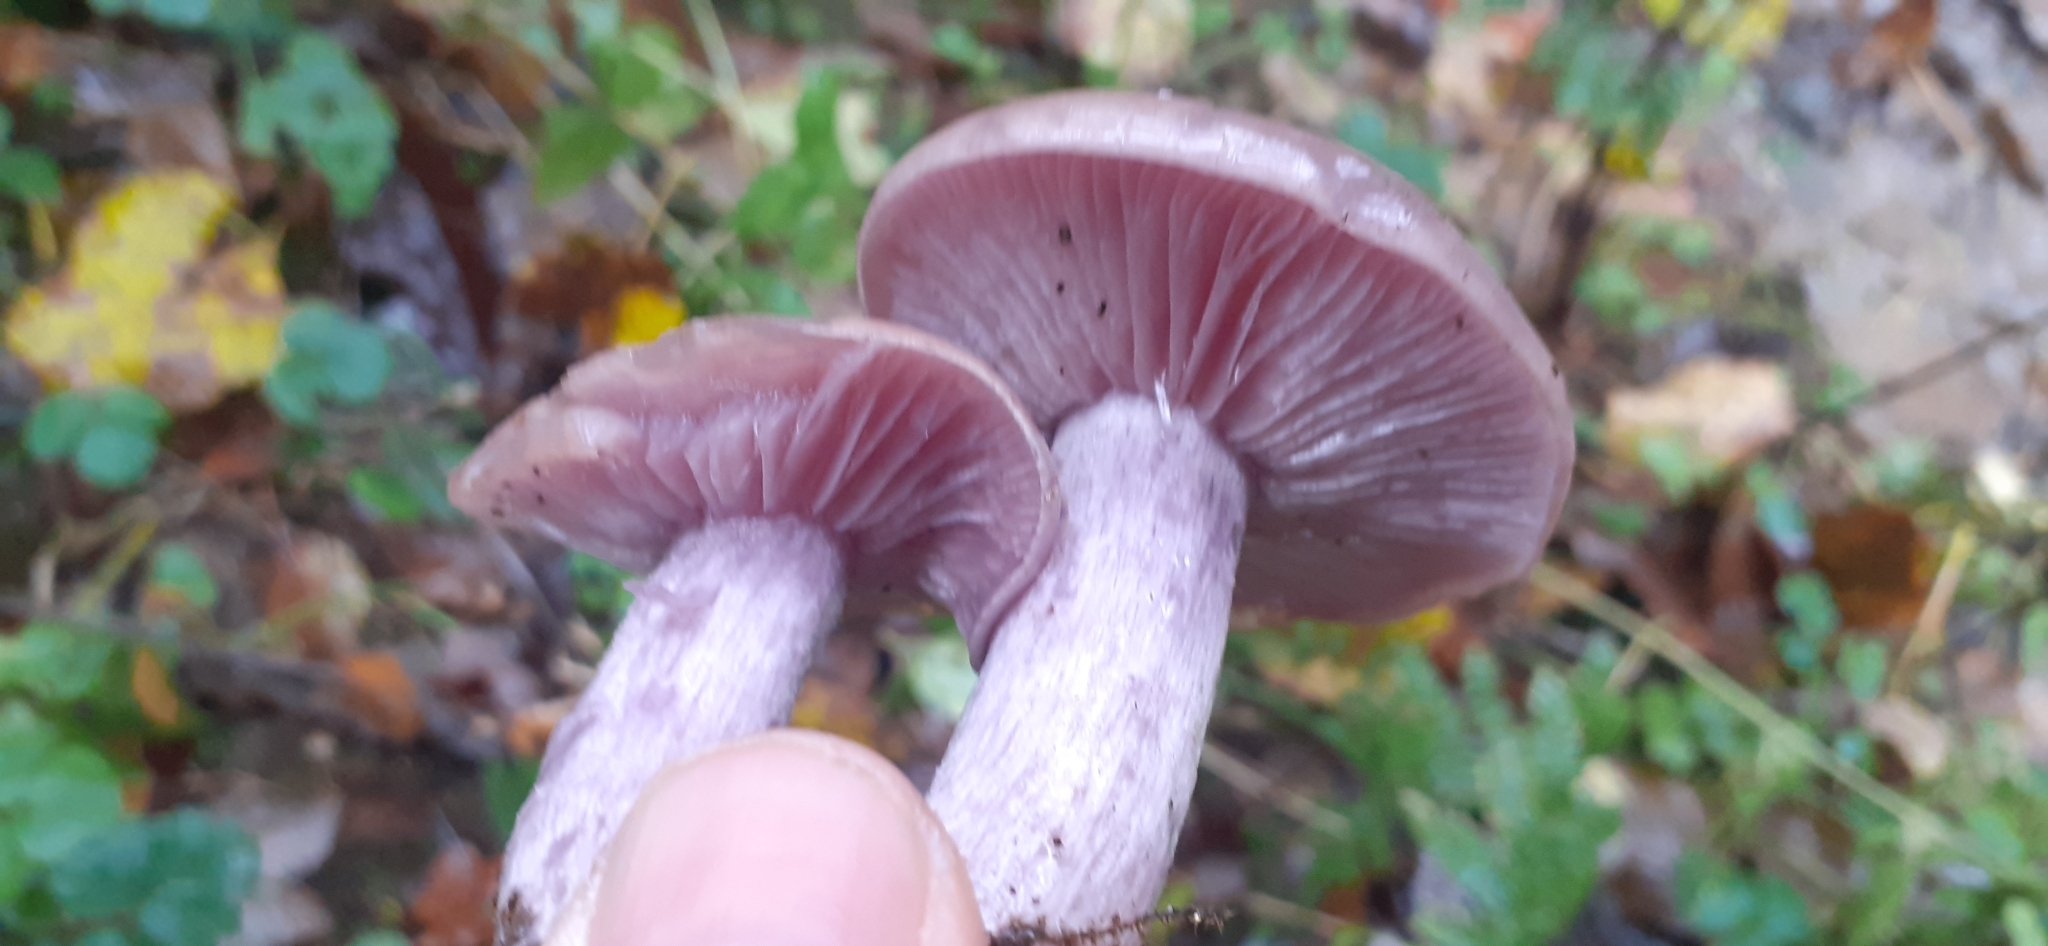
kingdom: Fungi
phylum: Basidiomycota
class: Agaricomycetes
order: Agaricales
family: Tricholomataceae
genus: Collybia
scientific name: Collybia
